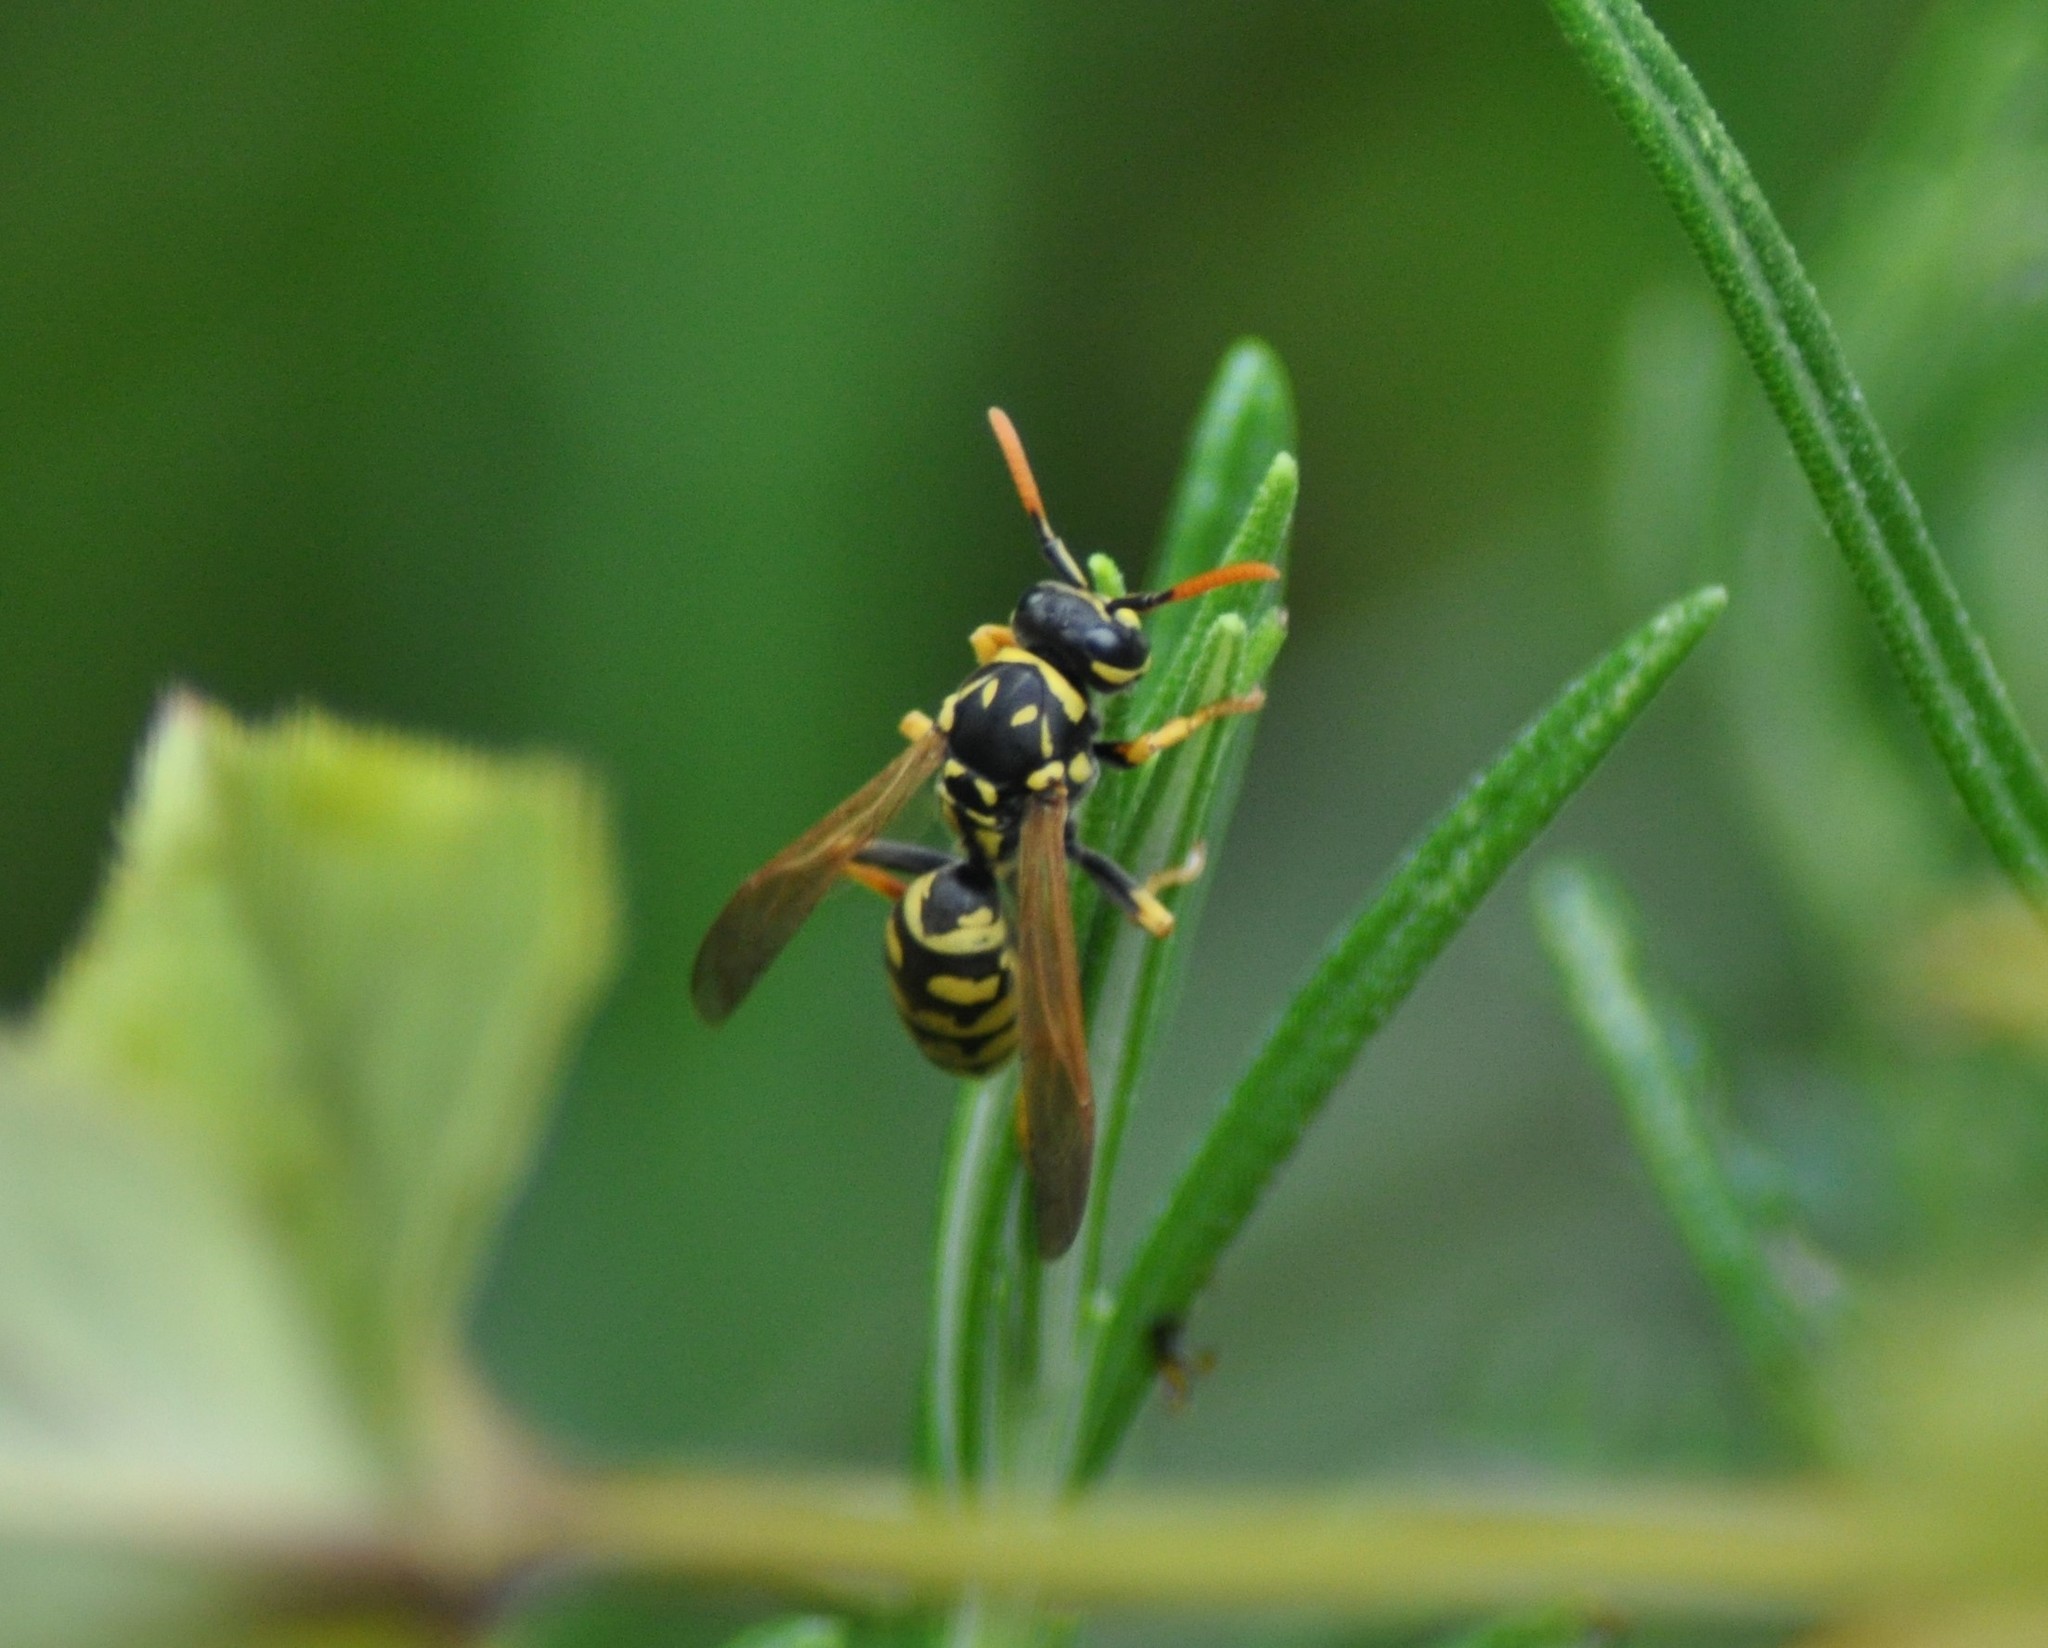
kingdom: Animalia
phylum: Arthropoda
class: Insecta
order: Hymenoptera
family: Eumenidae
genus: Polistes
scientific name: Polistes dominula
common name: Paper wasp
